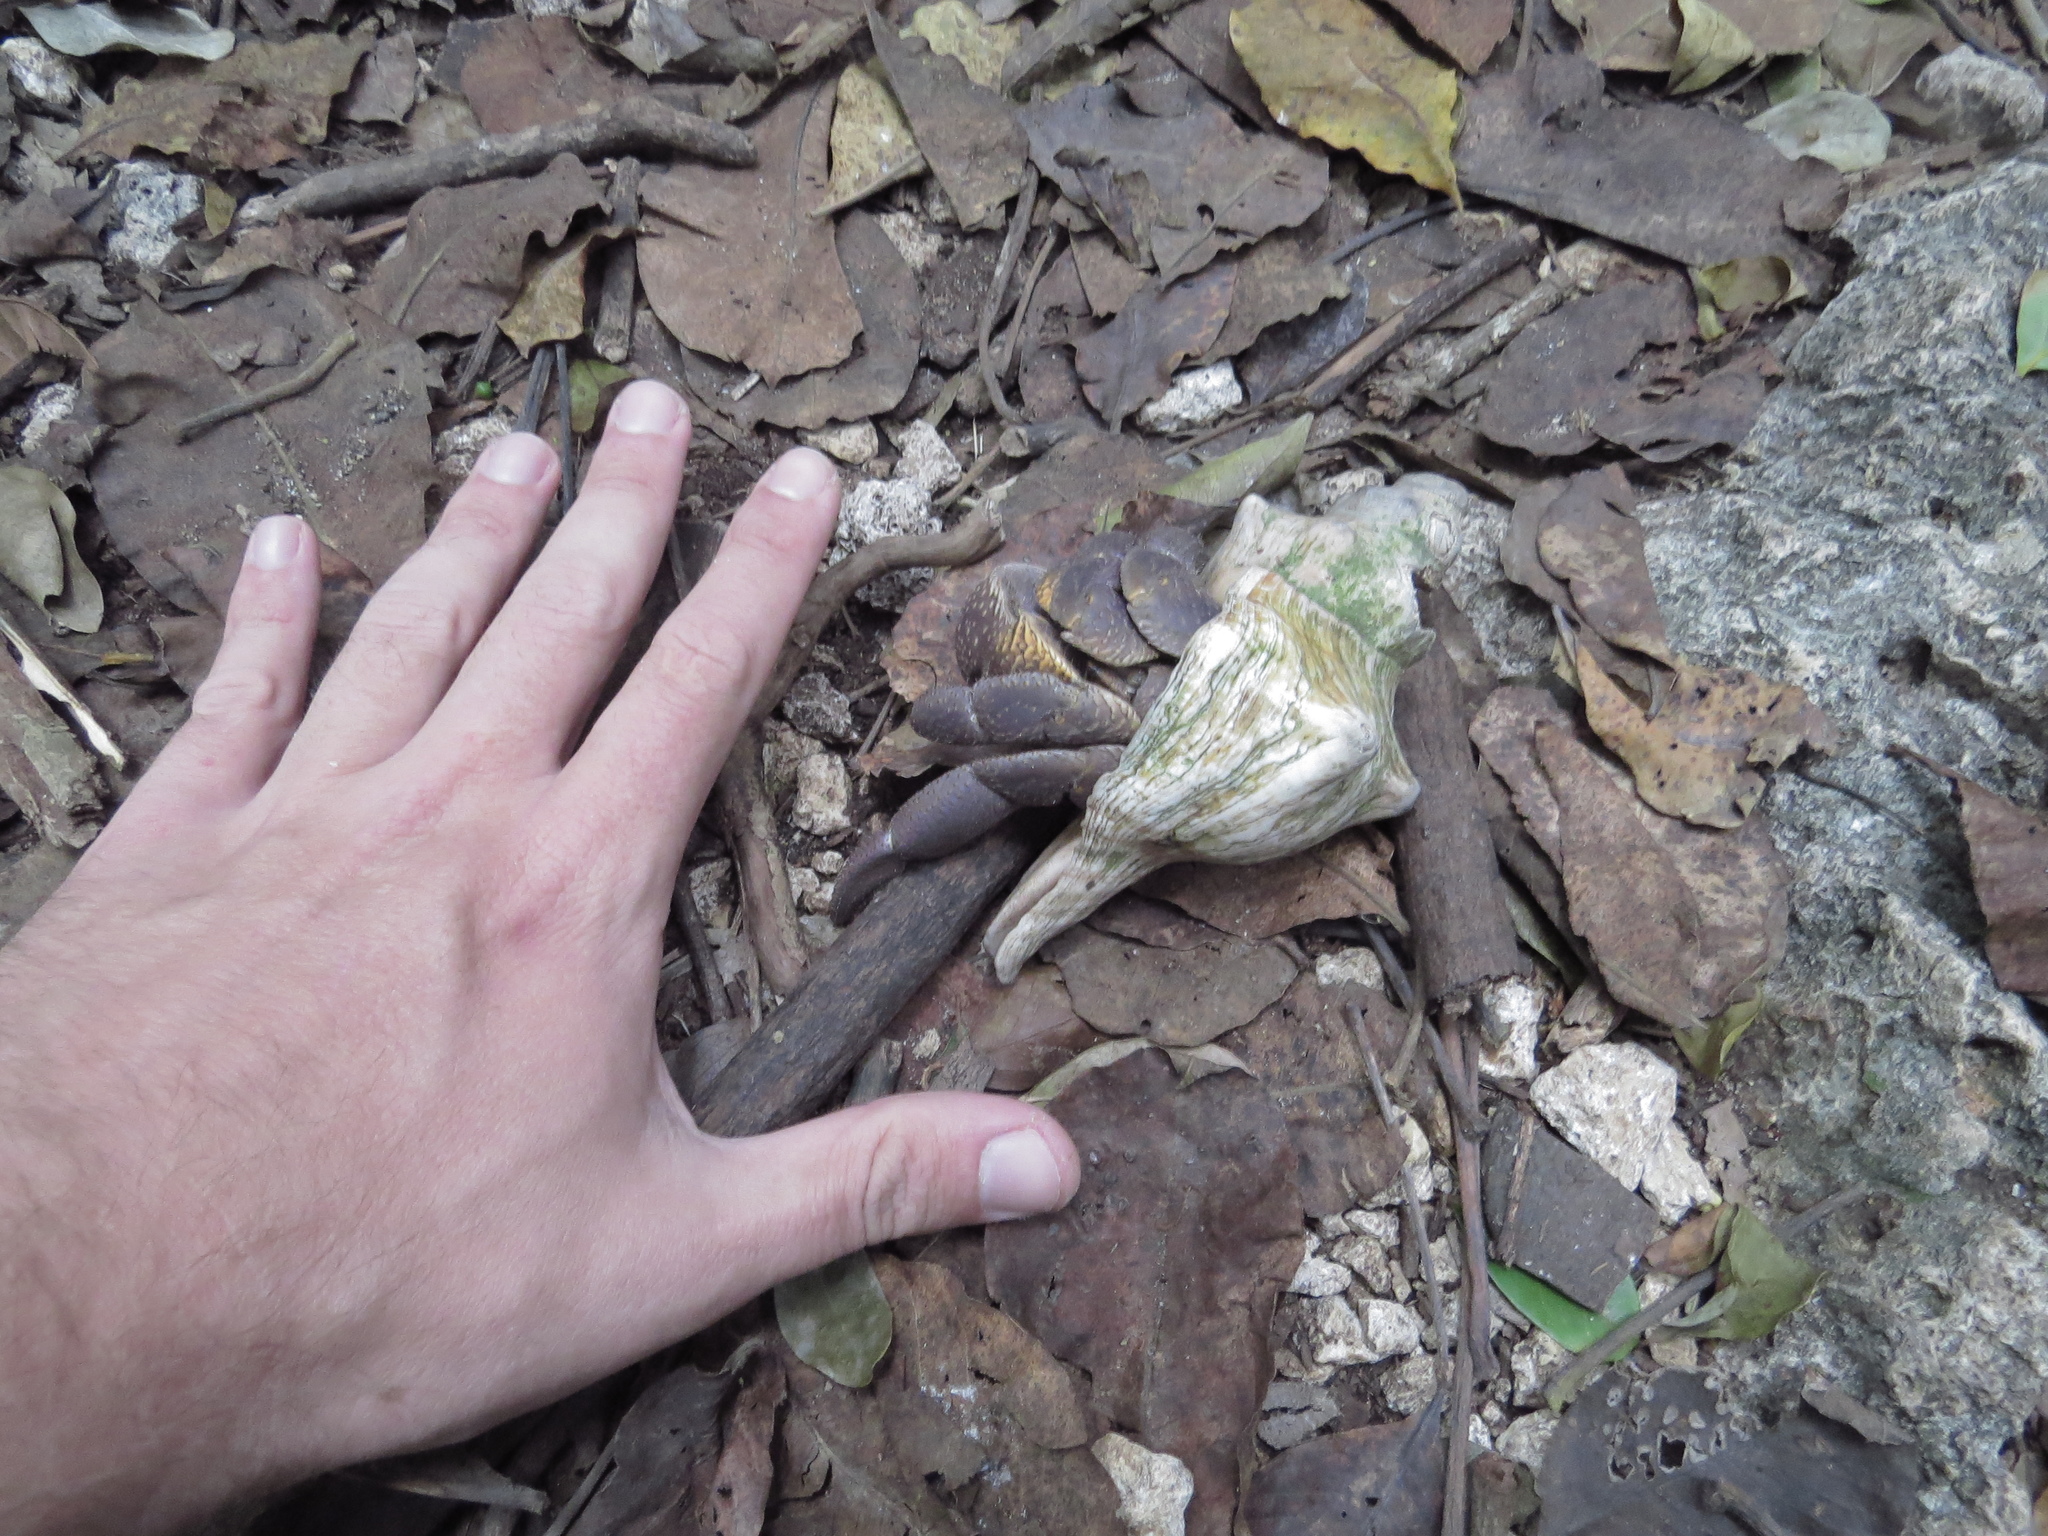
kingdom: Animalia
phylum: Arthropoda
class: Malacostraca
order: Decapoda
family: Coenobitidae
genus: Coenobita
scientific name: Coenobita brevimanus
